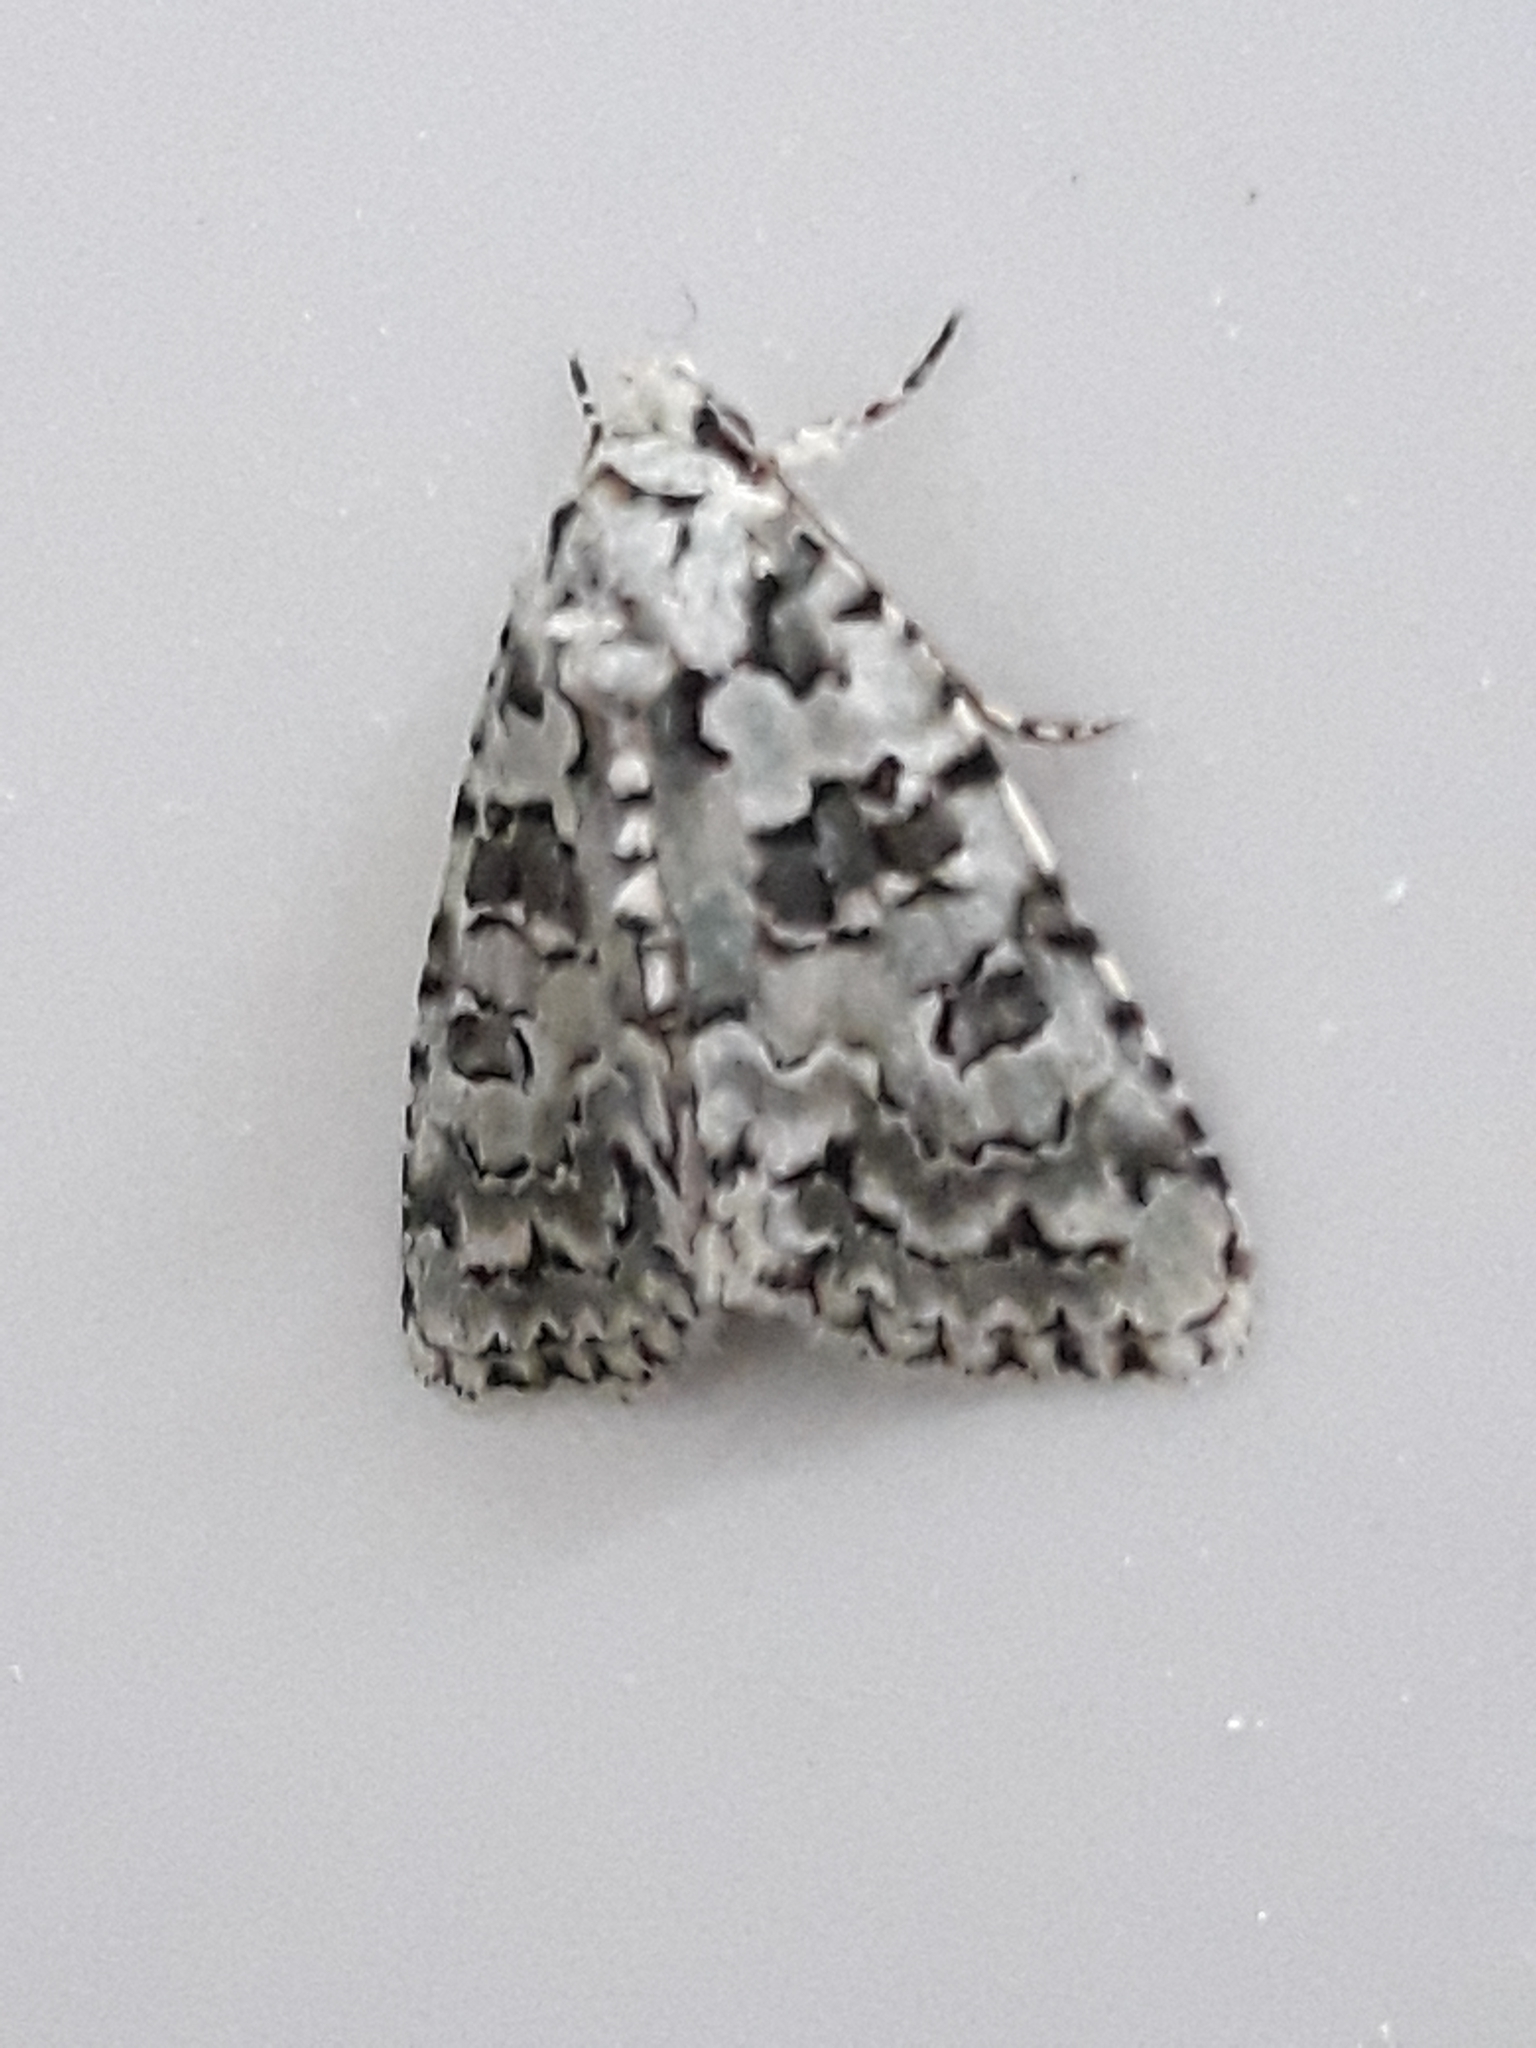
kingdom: Animalia
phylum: Arthropoda
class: Insecta
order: Lepidoptera
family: Noctuidae
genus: Nyctobrya
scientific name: Nyctobrya muralis
